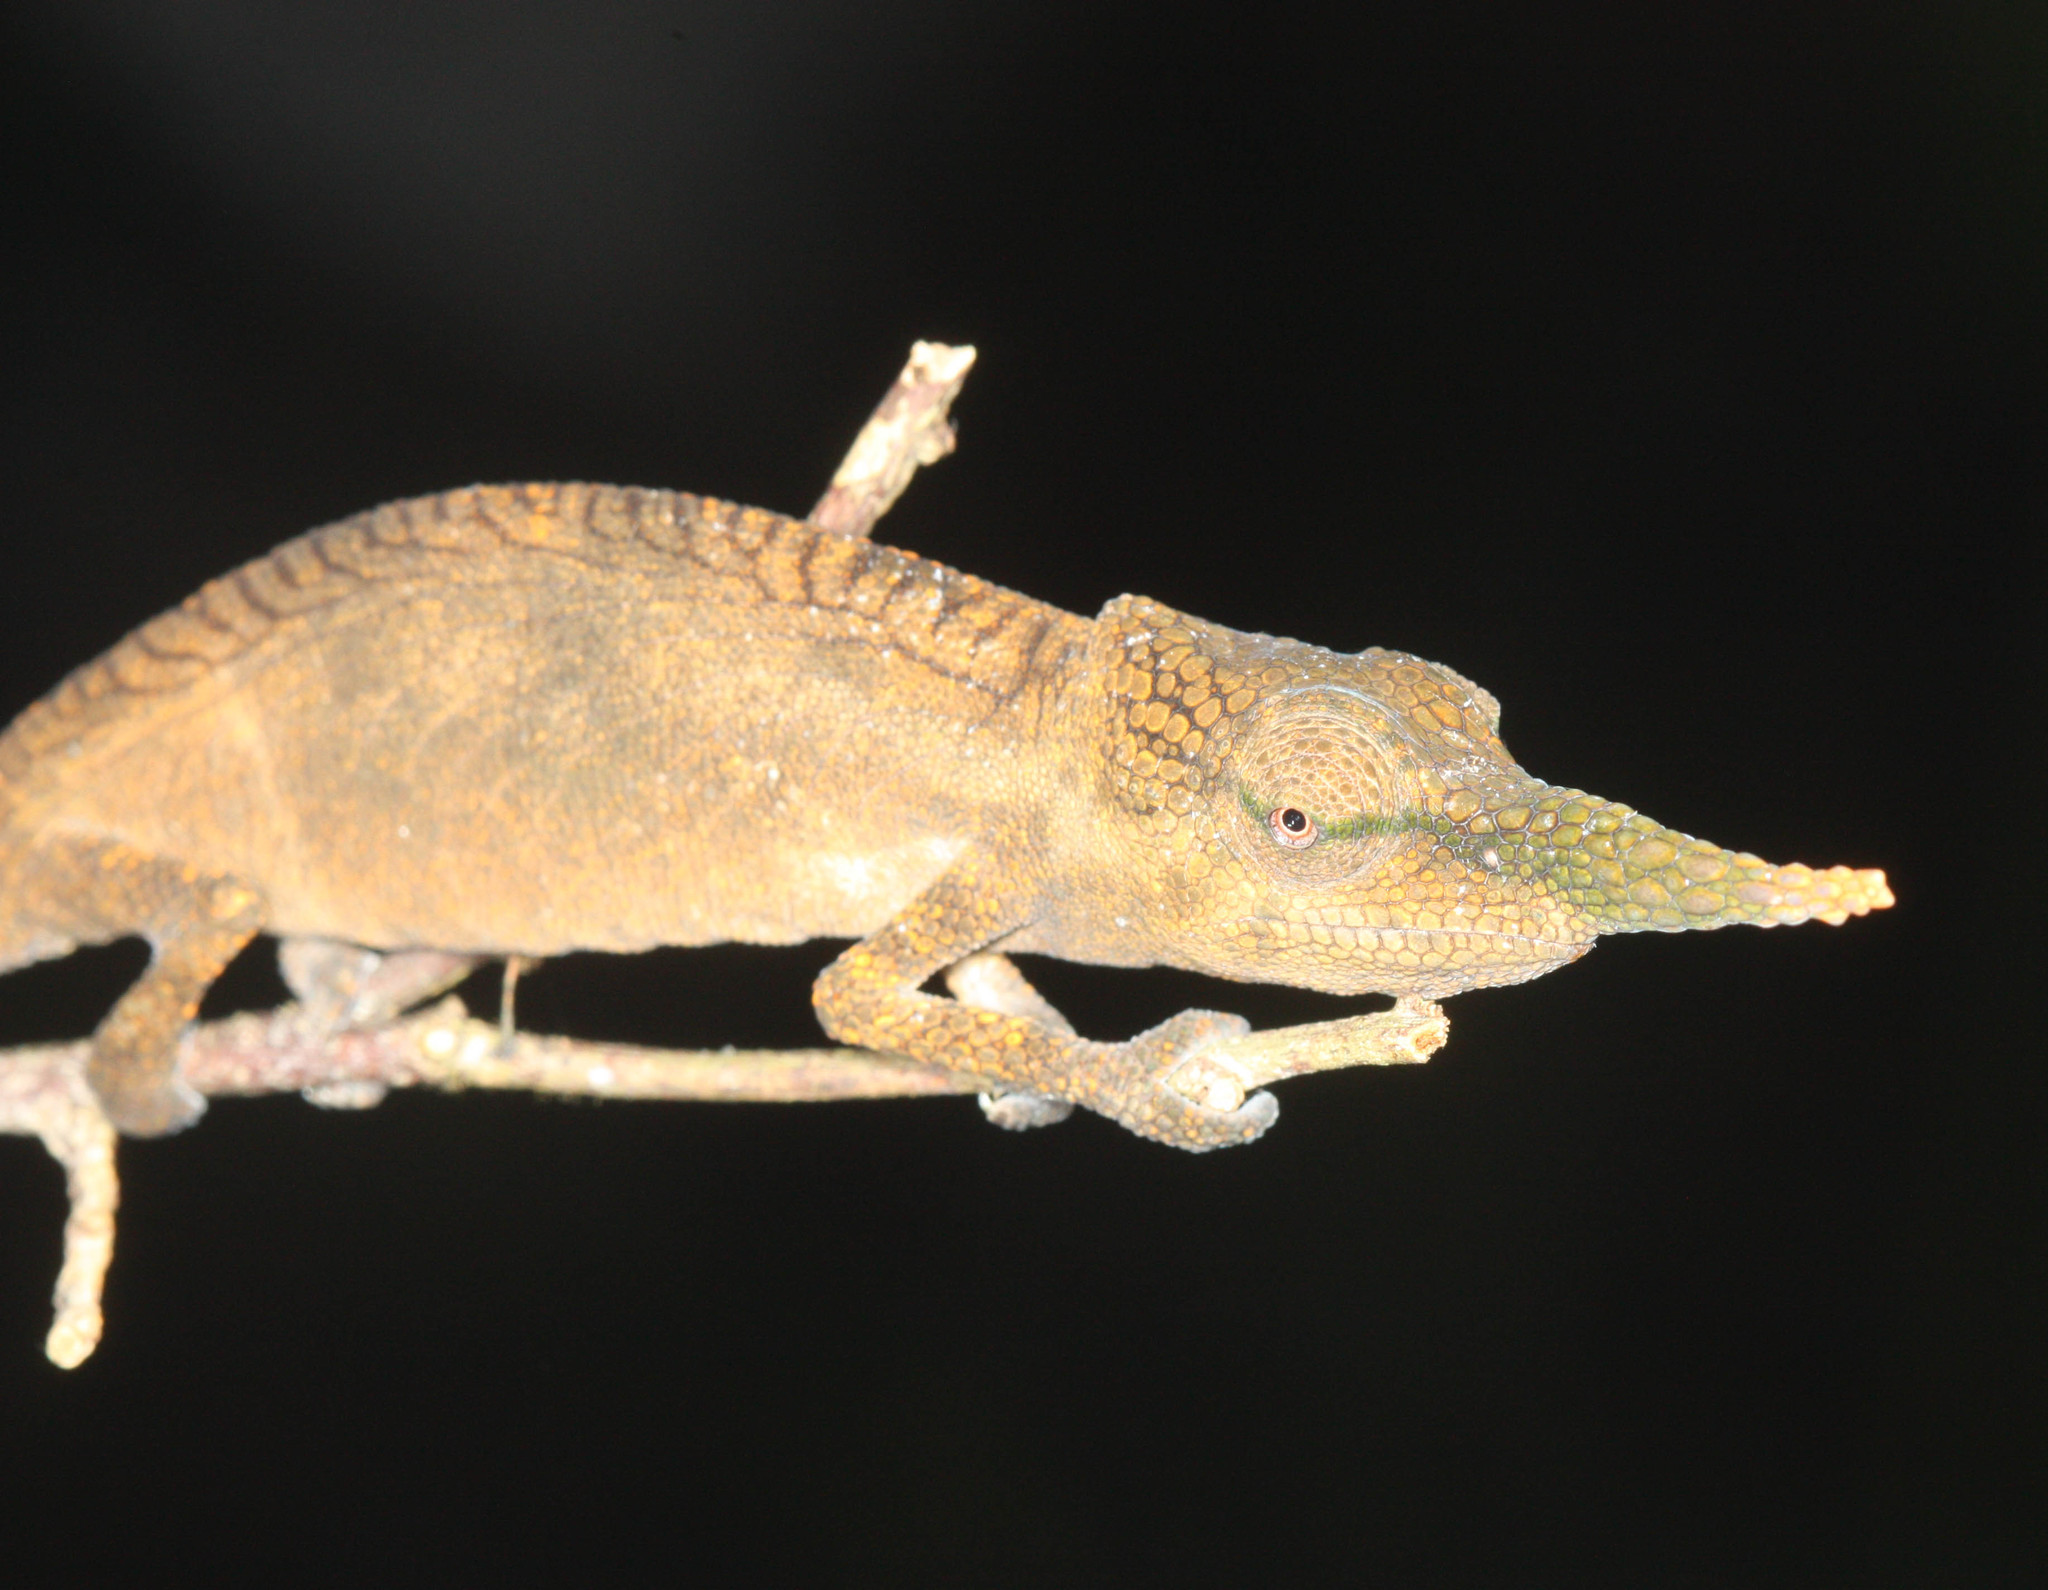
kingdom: Animalia
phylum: Chordata
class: Squamata
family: Chamaeleonidae
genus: Calumma
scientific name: Calumma gallus
